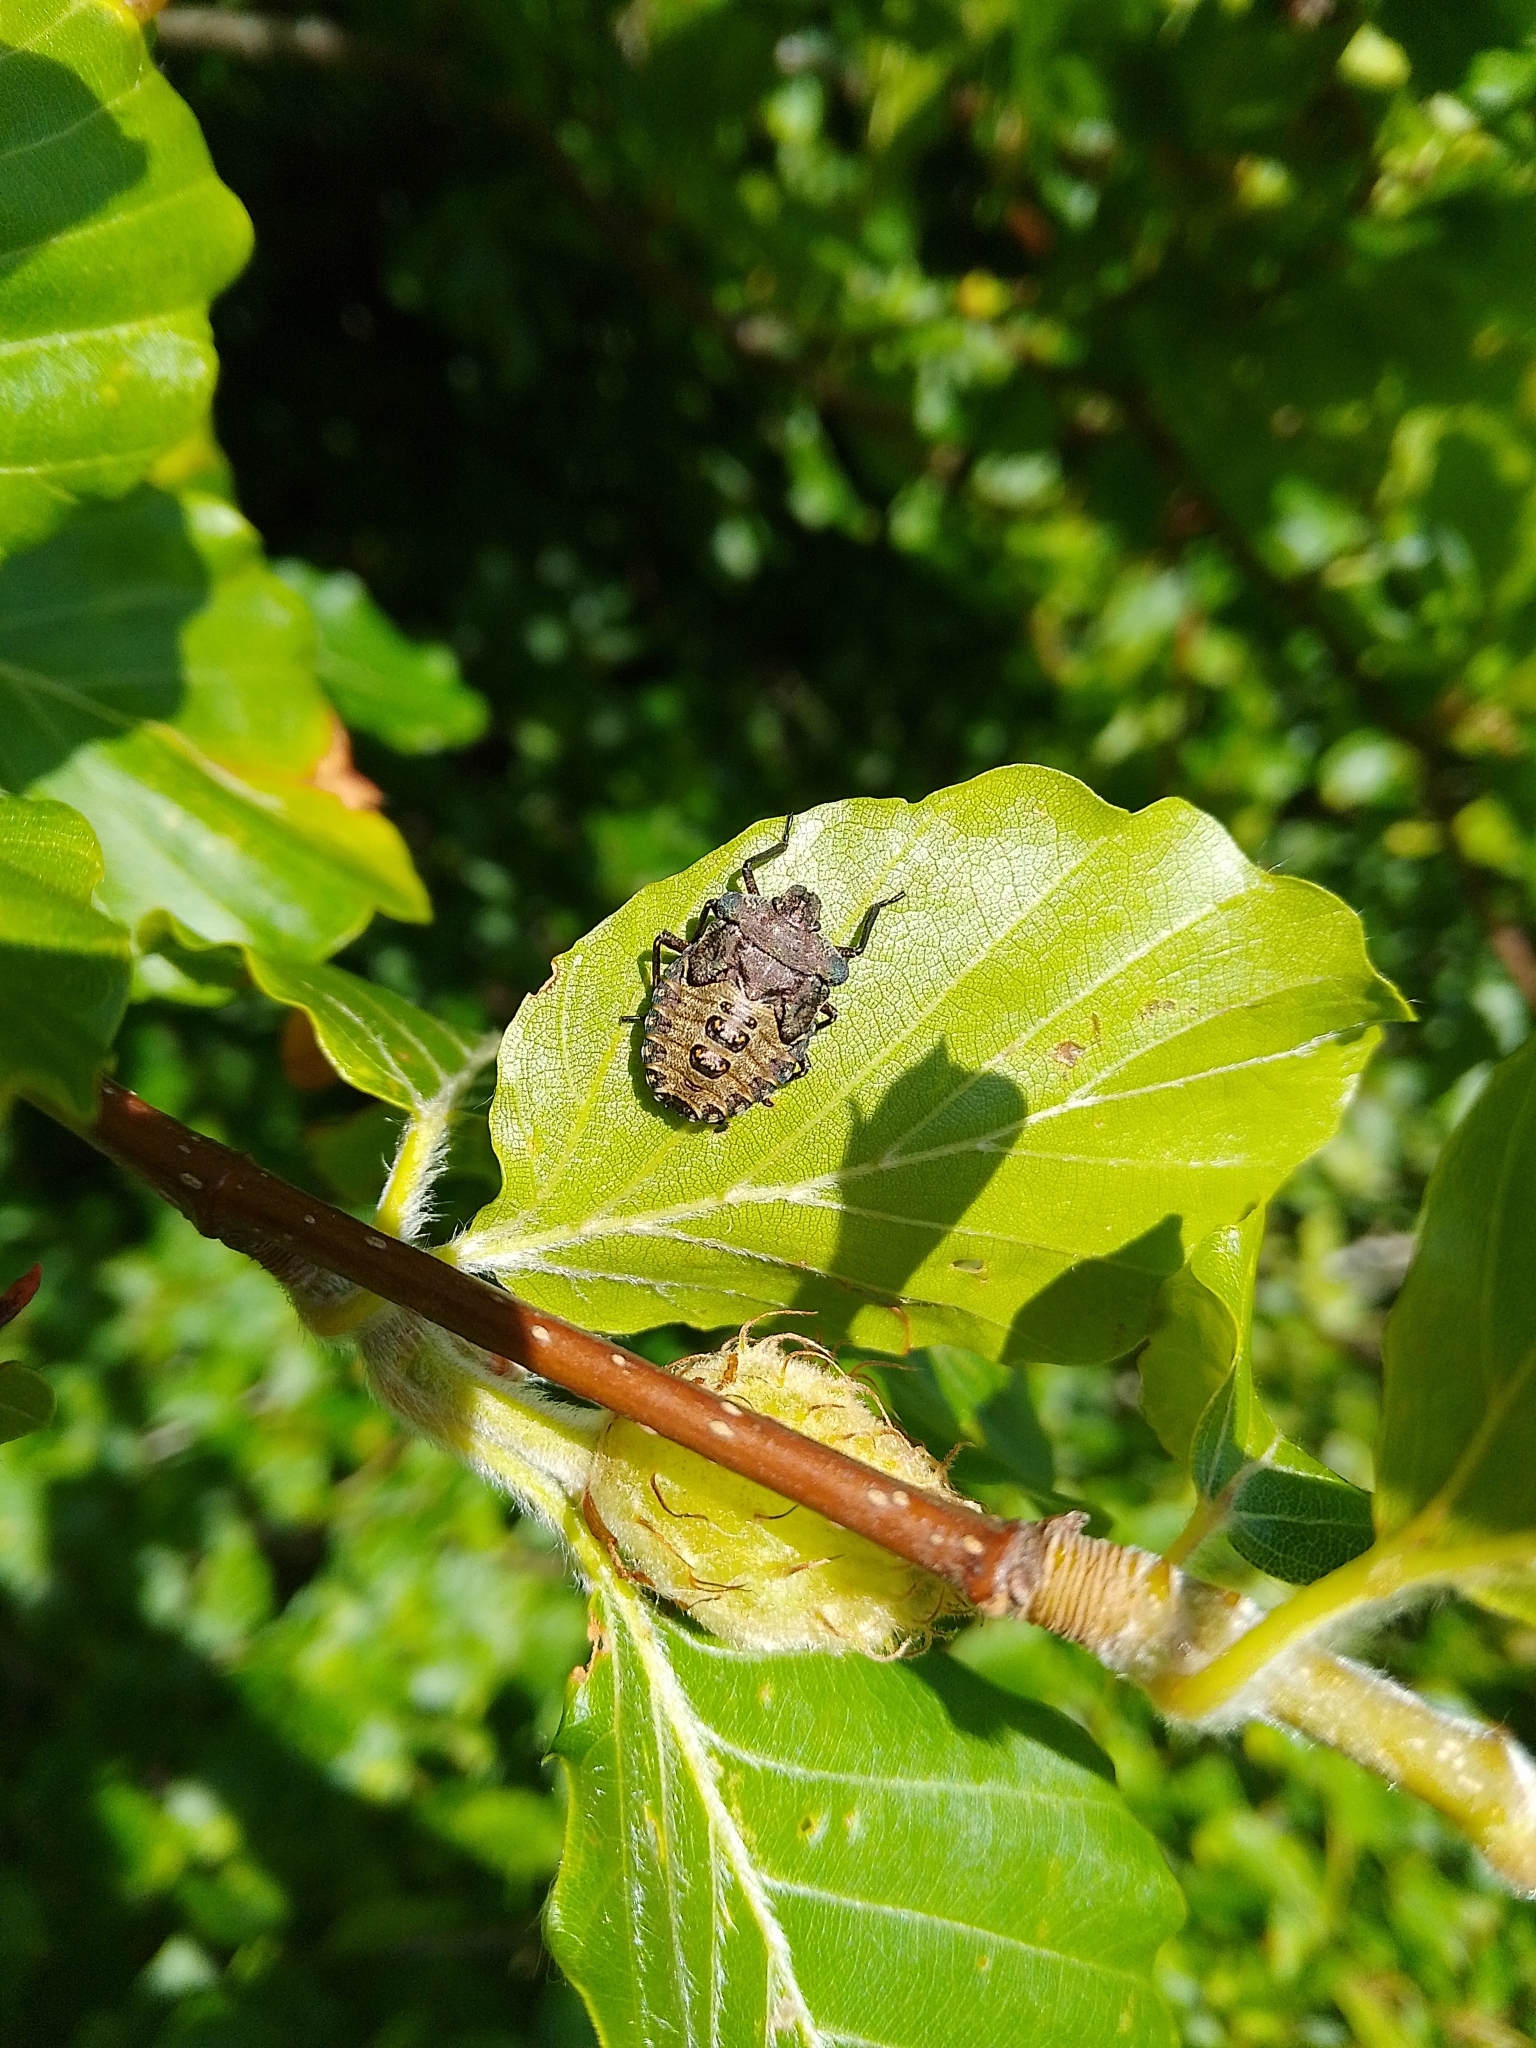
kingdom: Animalia
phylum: Arthropoda
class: Insecta
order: Hemiptera
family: Pentatomidae
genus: Pentatoma
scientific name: Pentatoma rufipes
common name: Forest bug
